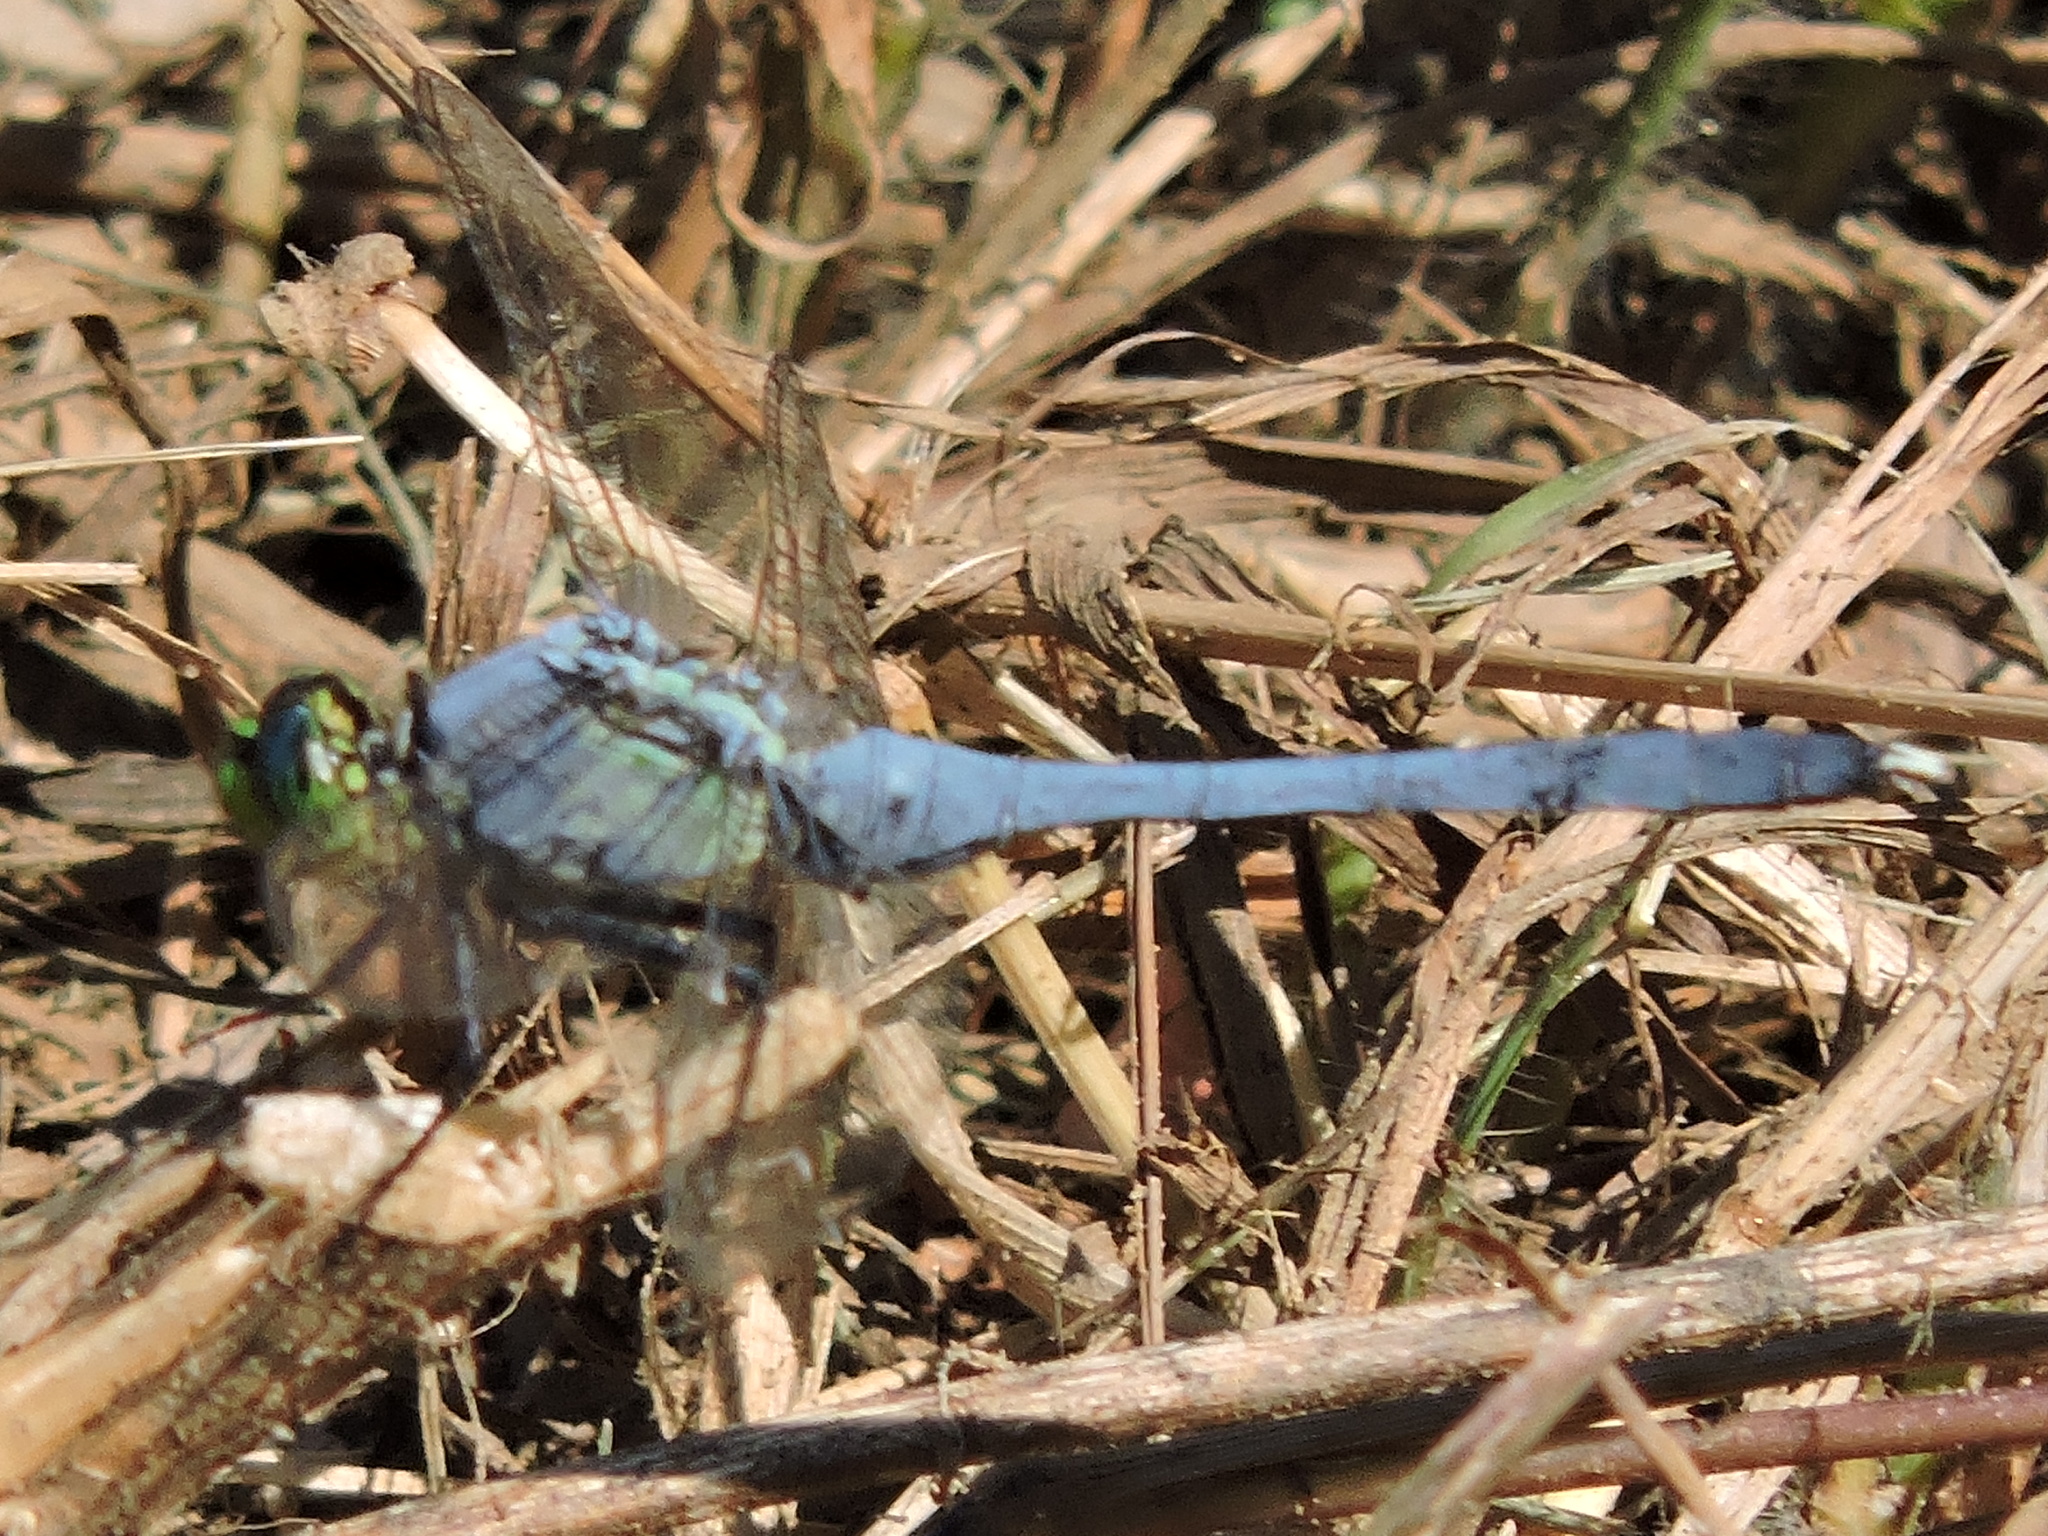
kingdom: Animalia
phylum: Arthropoda
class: Insecta
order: Odonata
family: Libellulidae
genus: Erythemis
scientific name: Erythemis simplicicollis
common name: Eastern pondhawk
